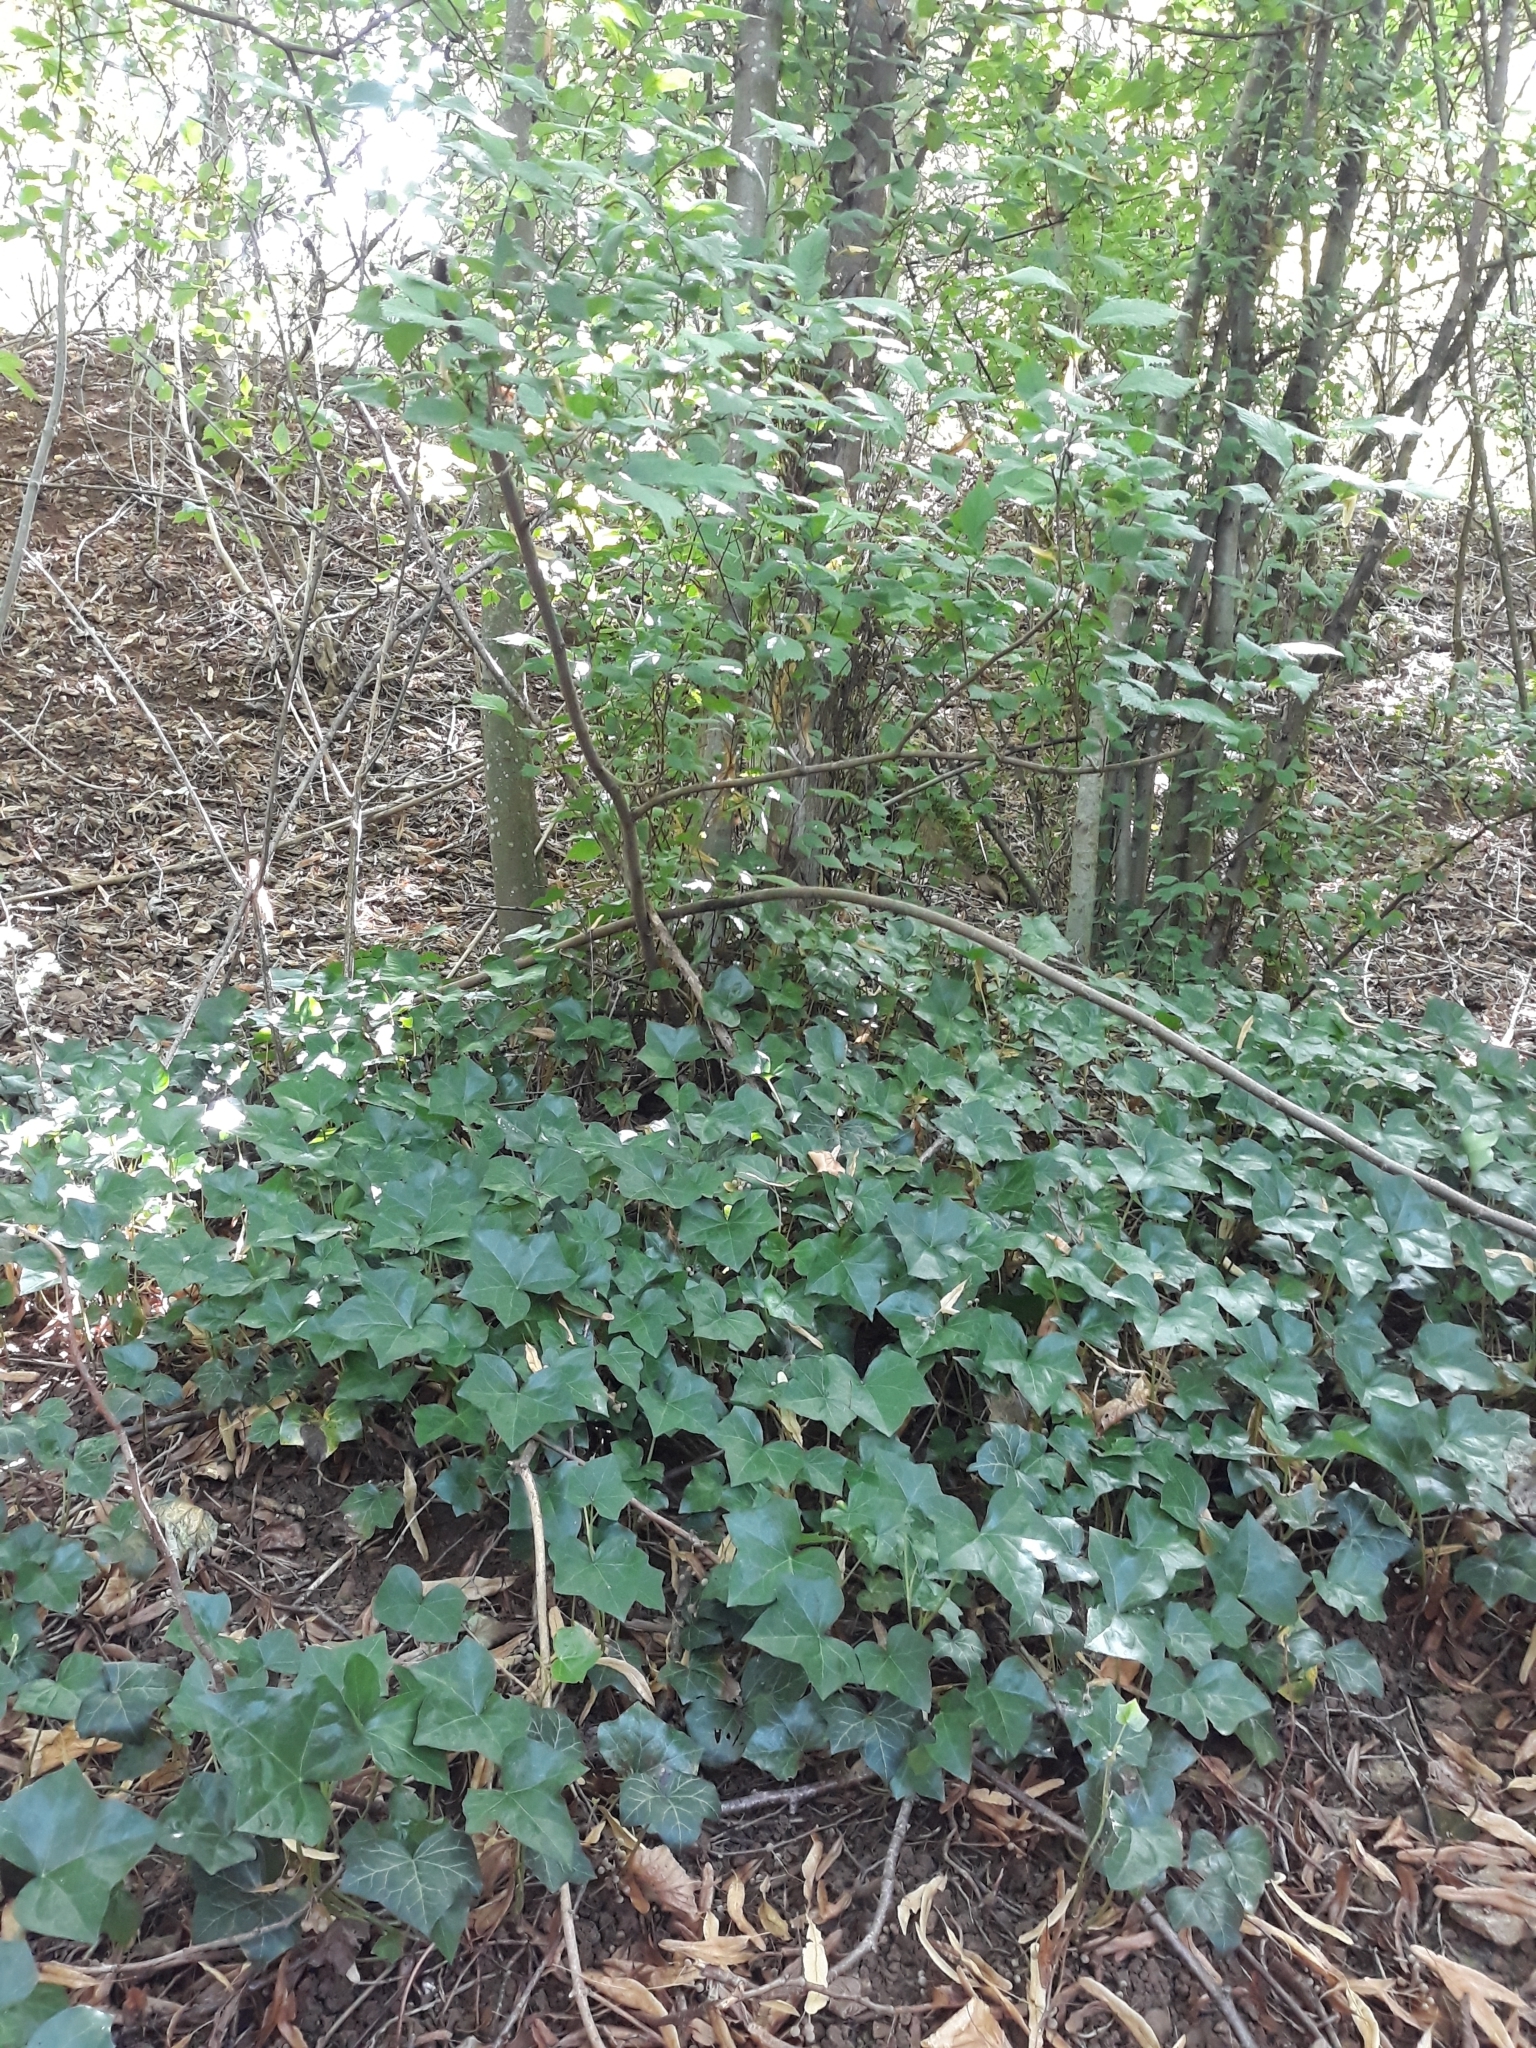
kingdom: Plantae
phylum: Tracheophyta
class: Magnoliopsida
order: Apiales
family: Araliaceae
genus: Hedera
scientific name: Hedera helix
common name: Ivy
